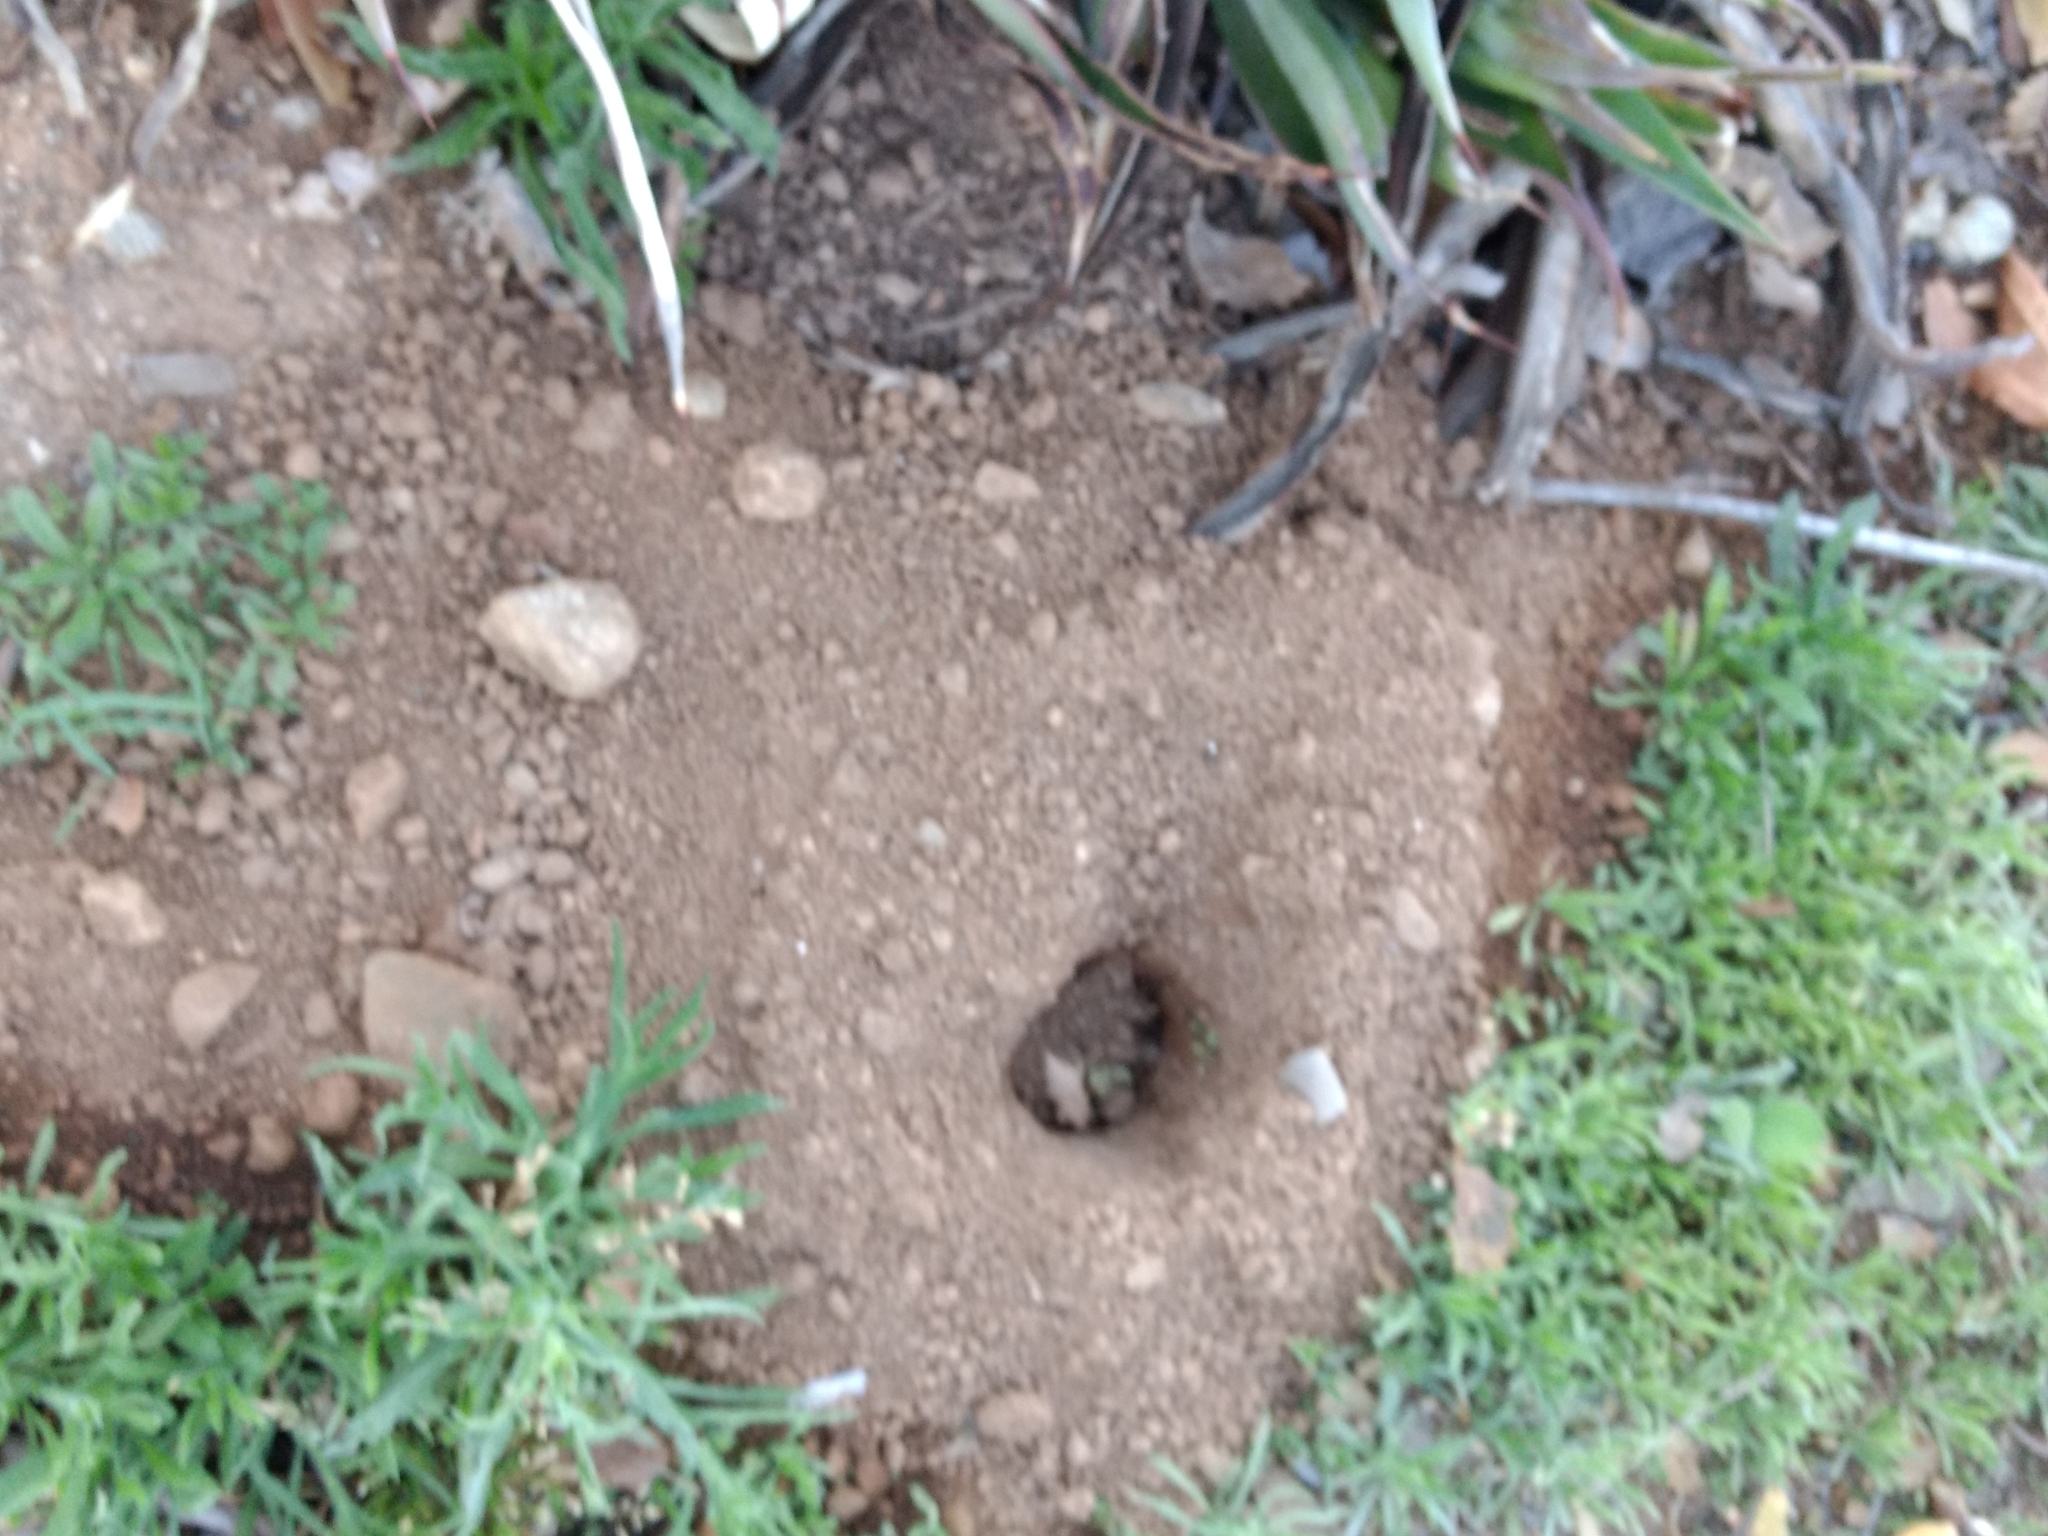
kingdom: Animalia
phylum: Chordata
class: Mammalia
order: Rodentia
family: Geomyidae
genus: Thomomys
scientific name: Thomomys bottae
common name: Botta's pocket gopher
